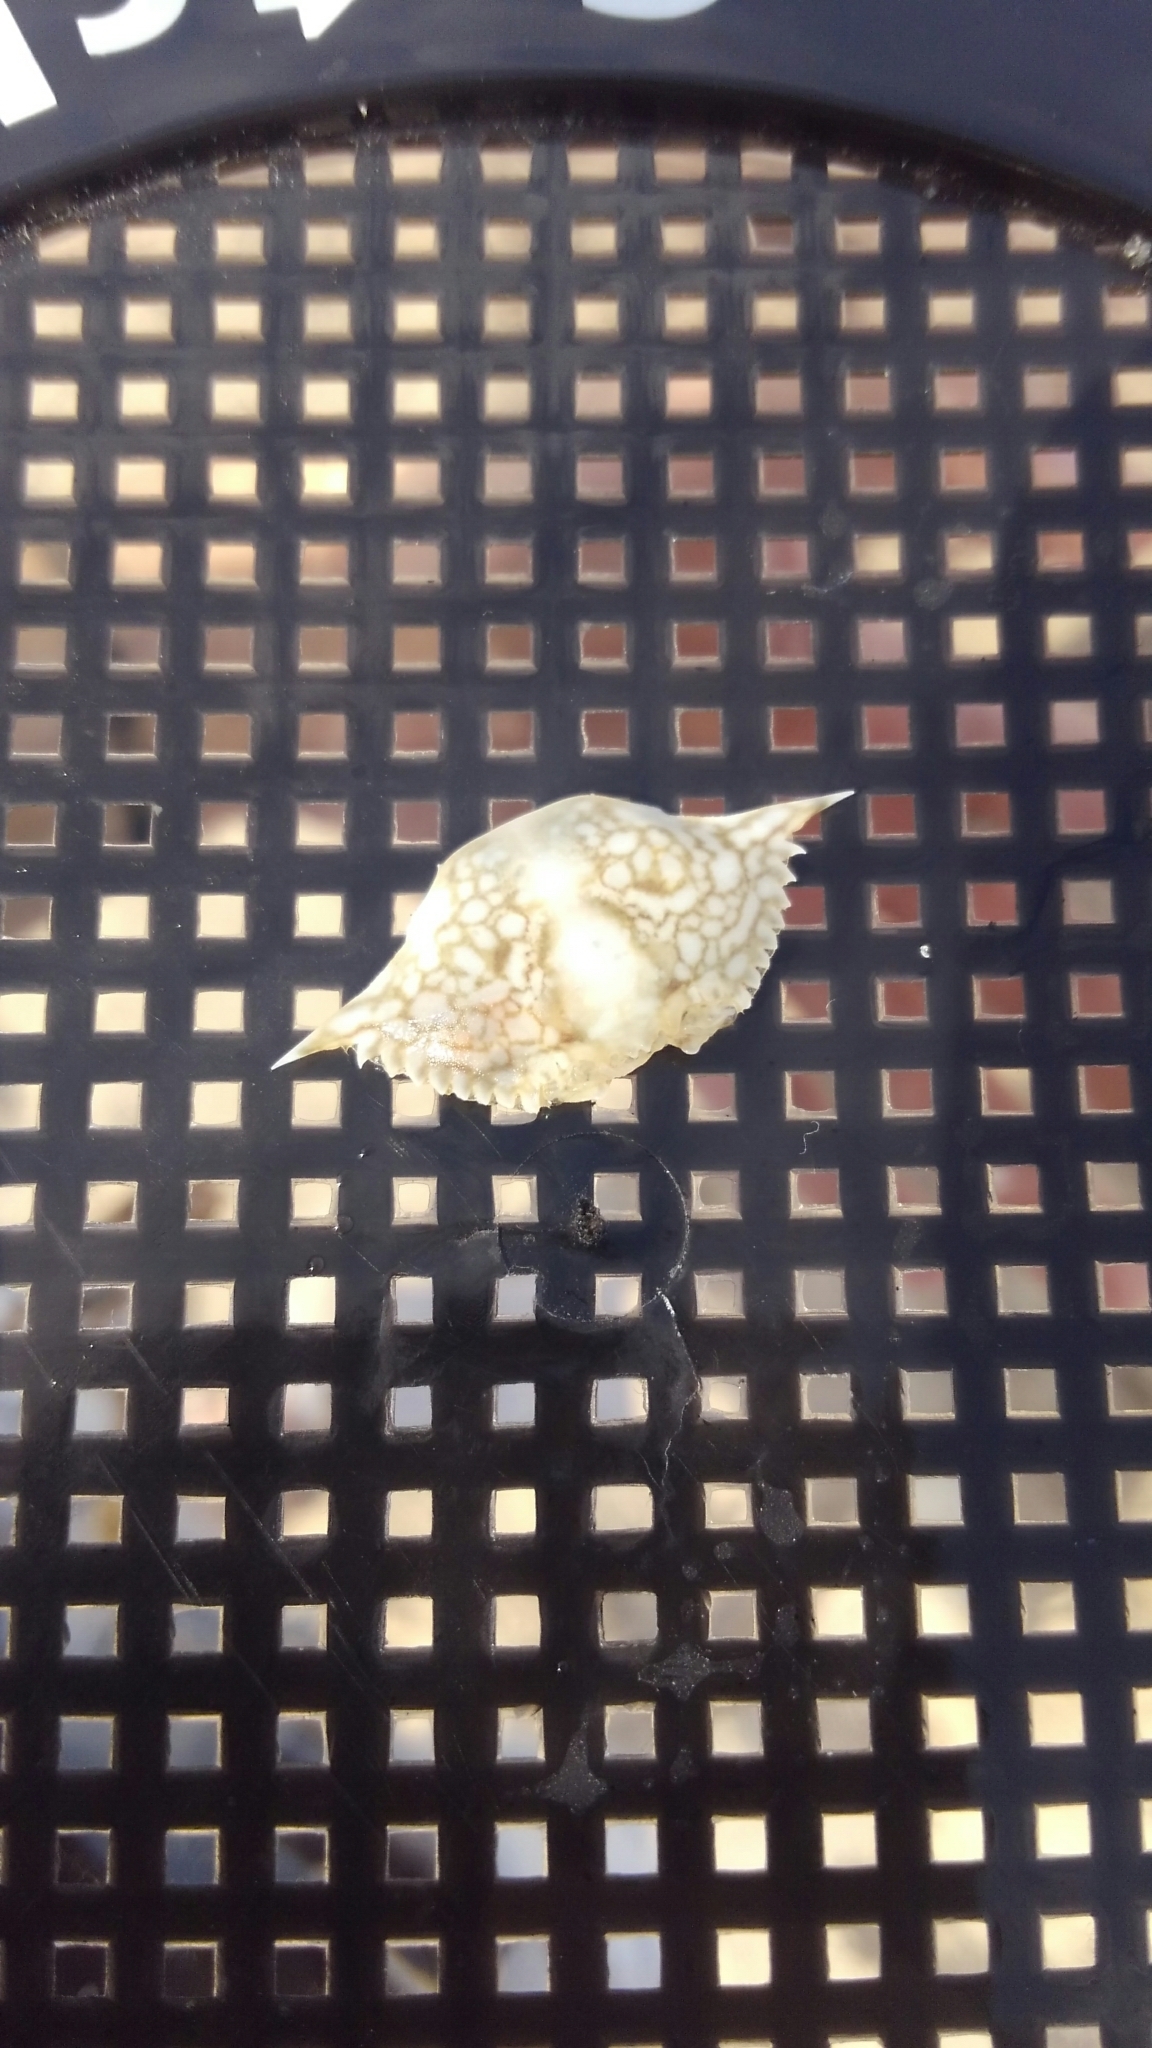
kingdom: Animalia
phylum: Arthropoda
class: Malacostraca
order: Decapoda
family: Portunidae
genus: Arenaeus
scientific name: Arenaeus cribrarius
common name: Speckled crab
